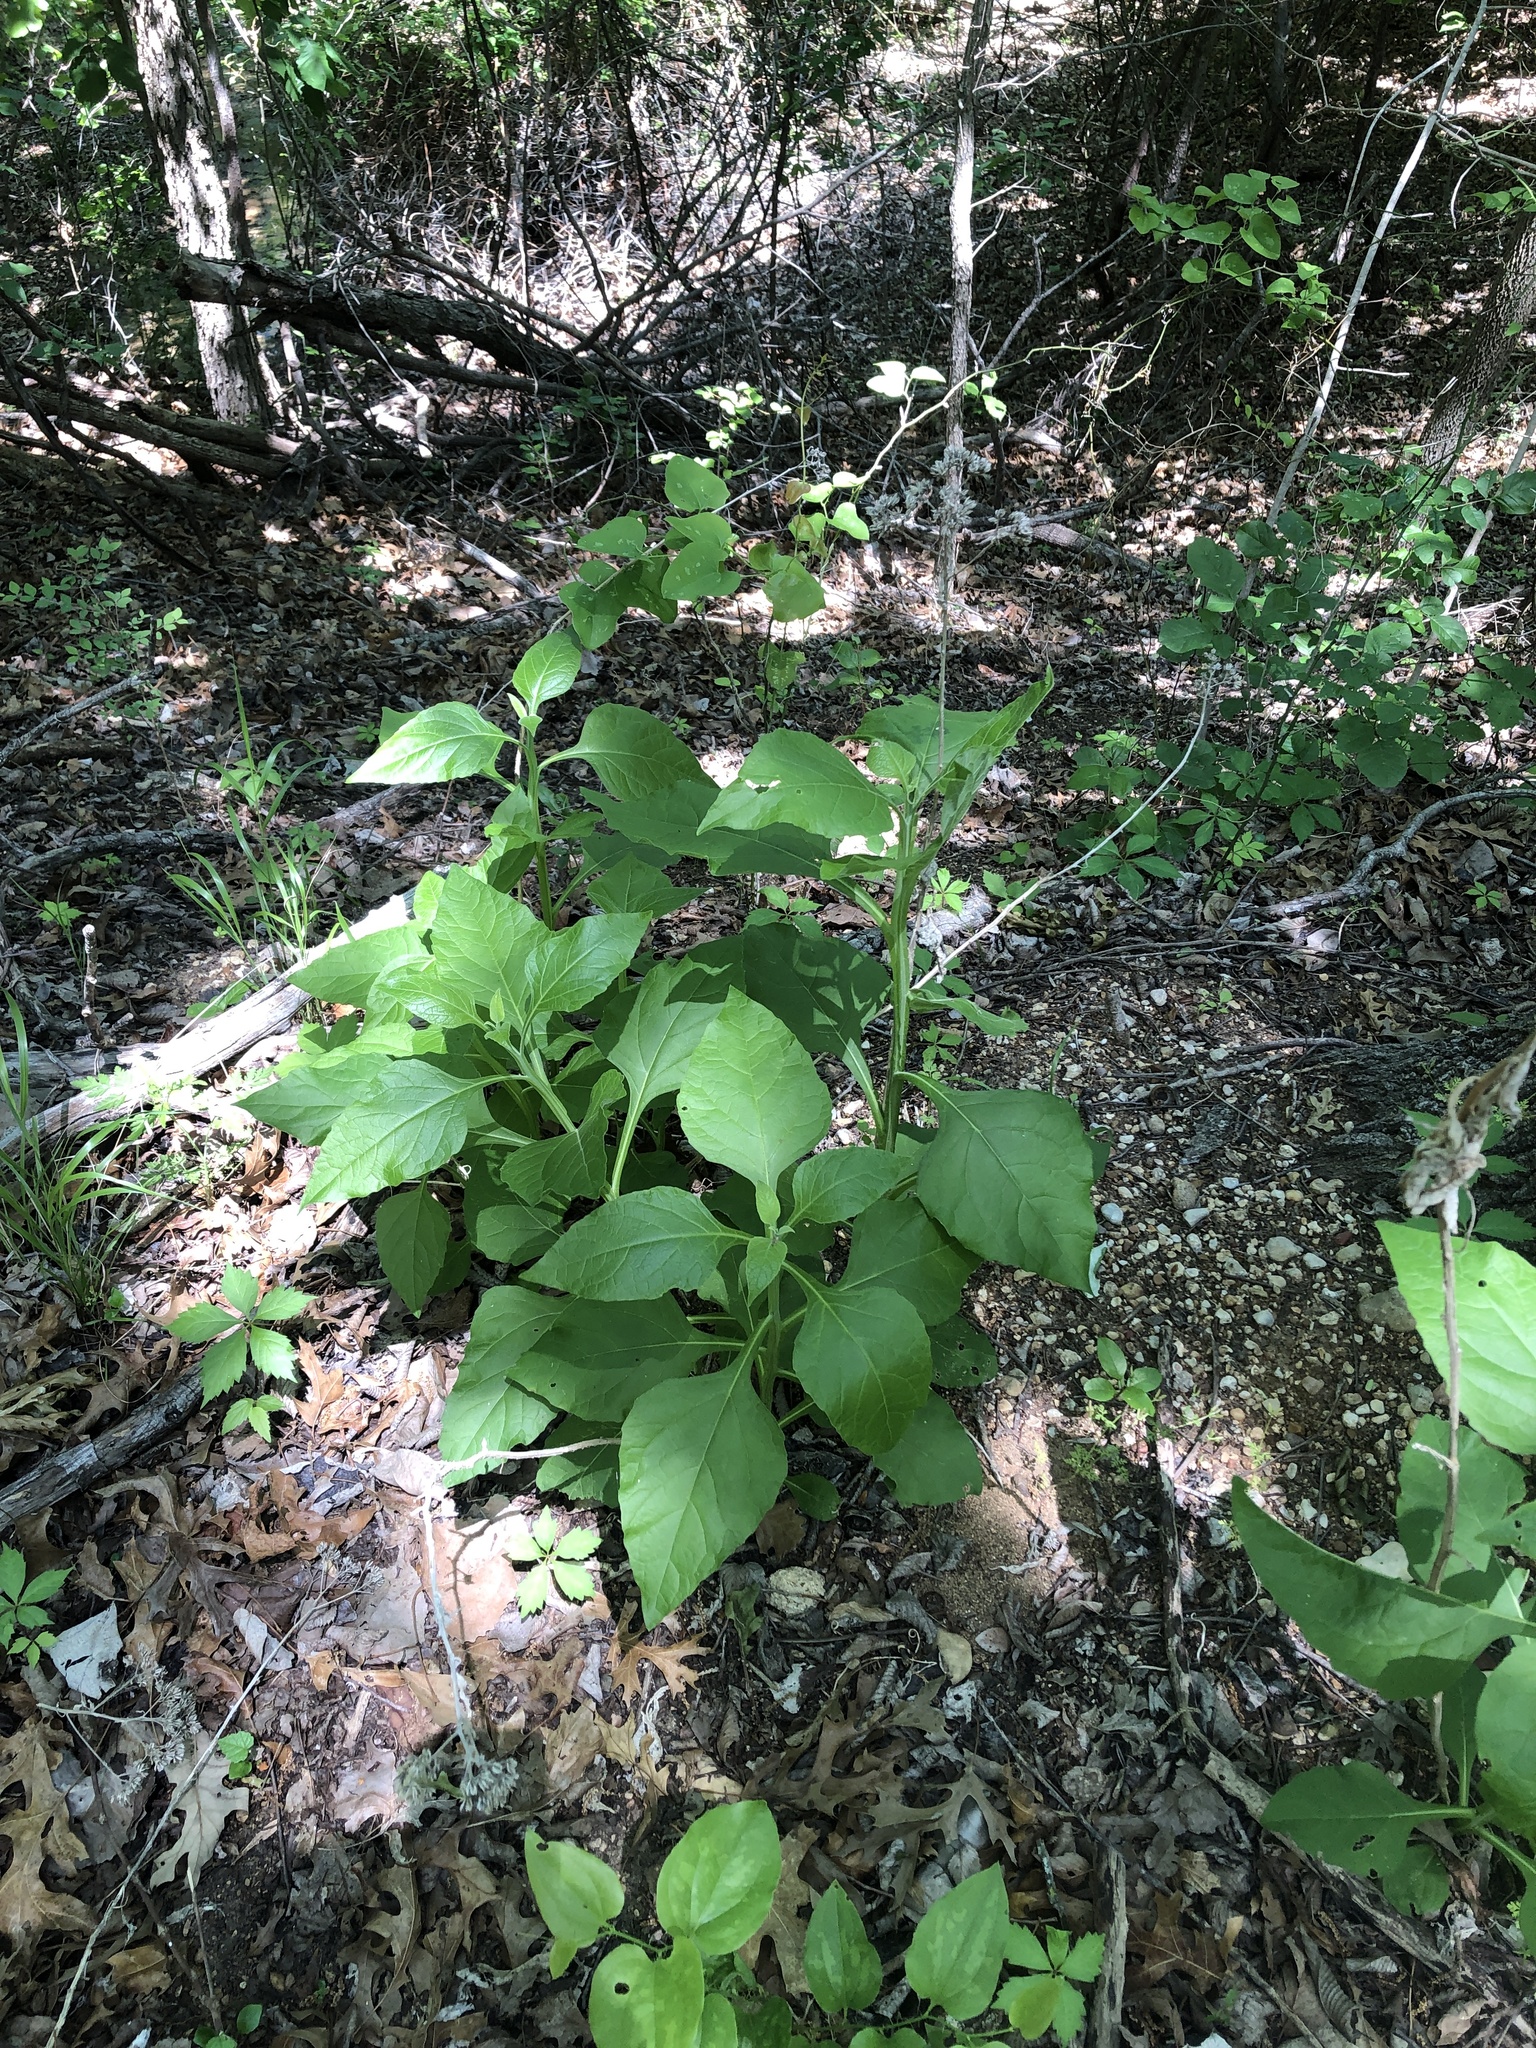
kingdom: Plantae
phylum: Tracheophyta
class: Magnoliopsida
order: Asterales
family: Asteraceae
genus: Verbesina
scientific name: Verbesina virginica
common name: Frostweed
